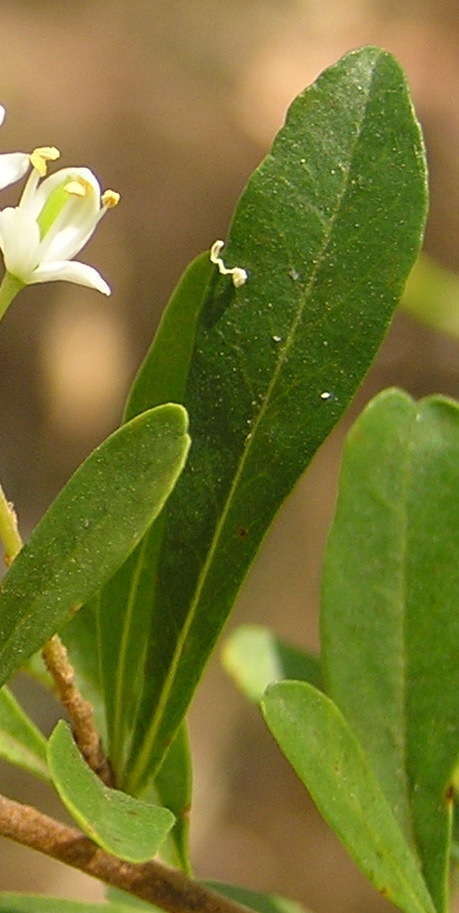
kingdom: Plantae
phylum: Tracheophyta
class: Magnoliopsida
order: Apiales
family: Pittosporaceae
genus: Bursaria
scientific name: Bursaria spinosa
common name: Australian blackthorn
